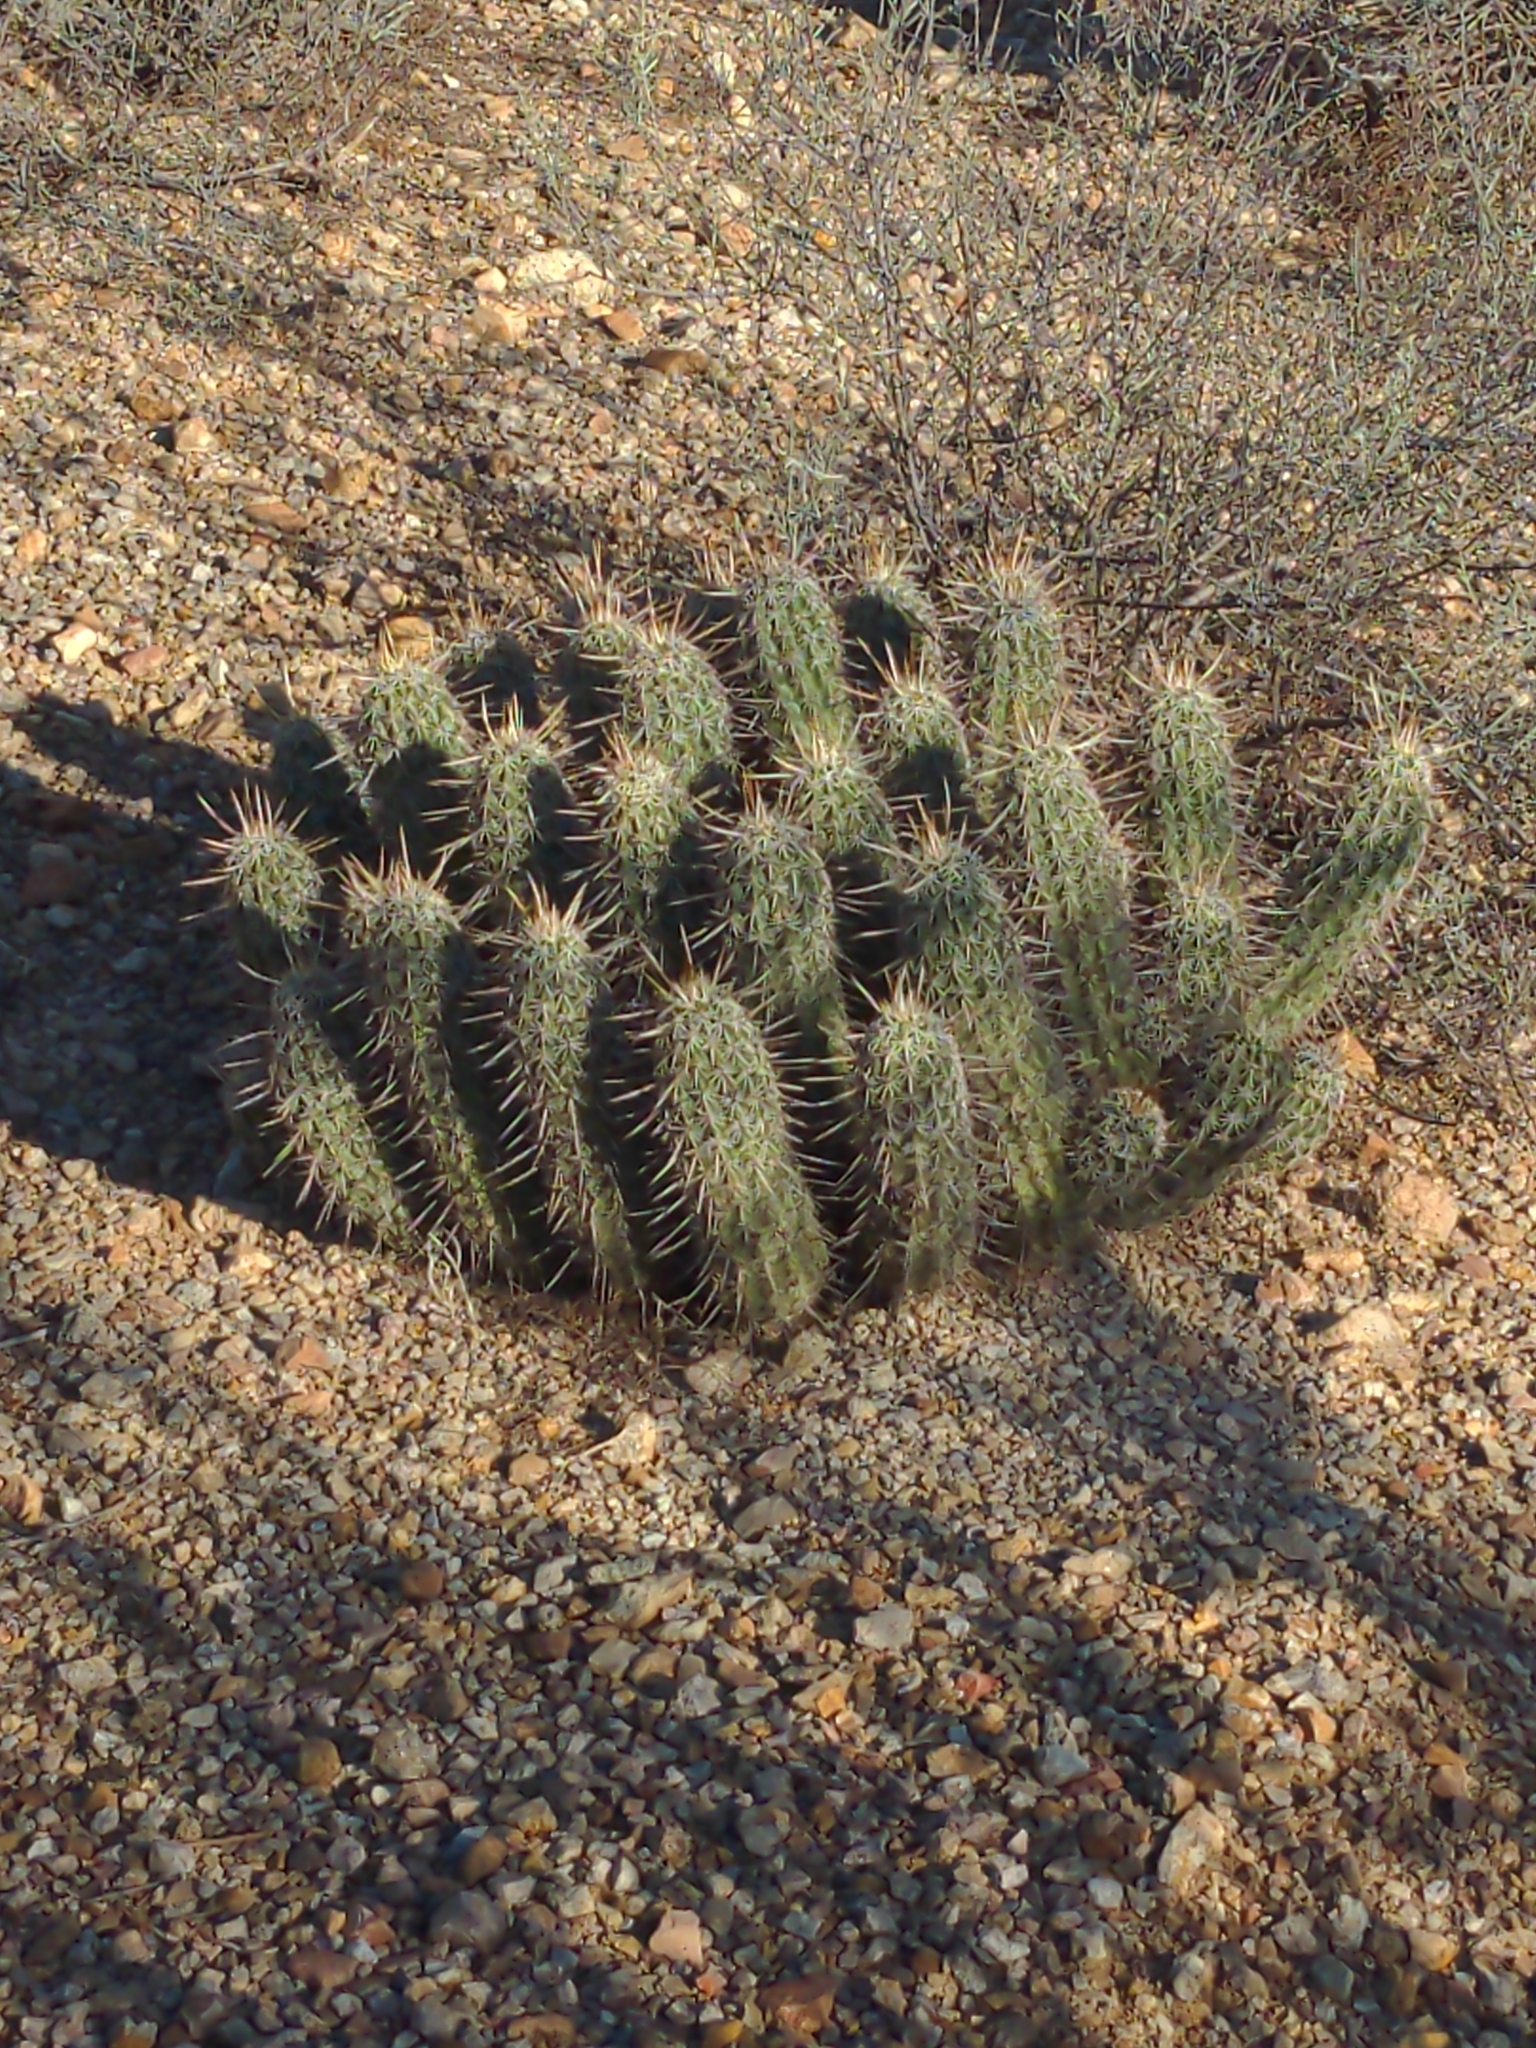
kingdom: Plantae
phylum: Tracheophyta
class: Magnoliopsida
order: Caryophyllales
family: Cactaceae
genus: Echinocereus
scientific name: Echinocereus fasciculatus
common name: Bundle hedgehog
